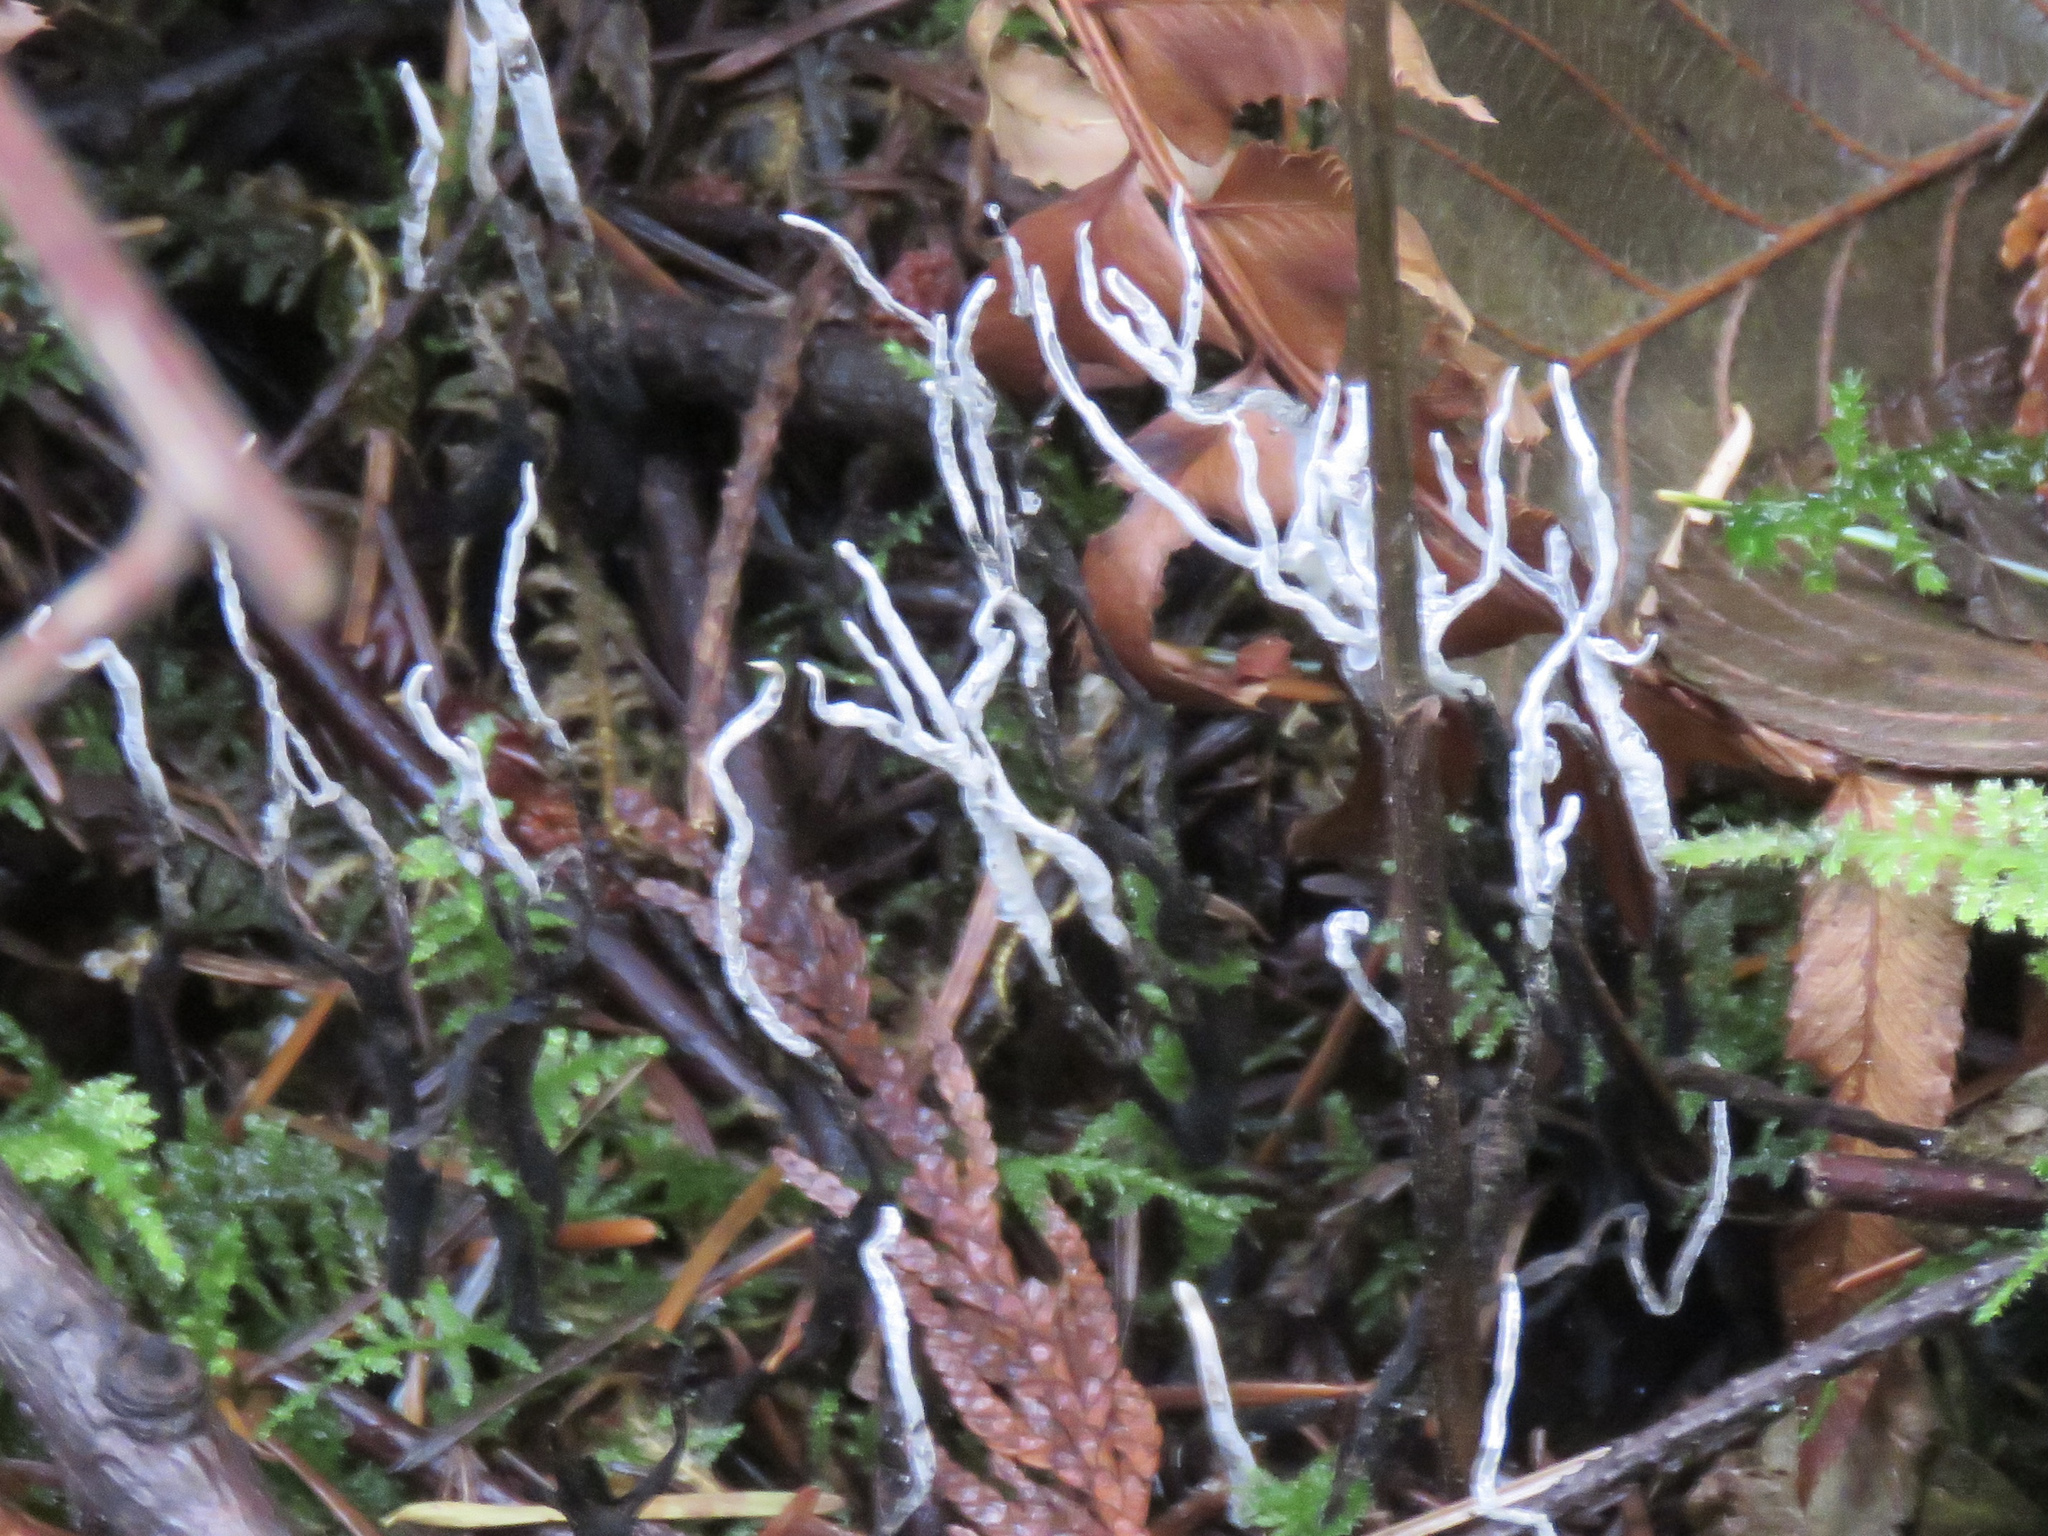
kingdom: Fungi
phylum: Ascomycota
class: Sordariomycetes
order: Xylariales
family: Xylariaceae
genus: Xylaria
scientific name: Xylaria hypoxylon
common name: Candle-snuff fungus
